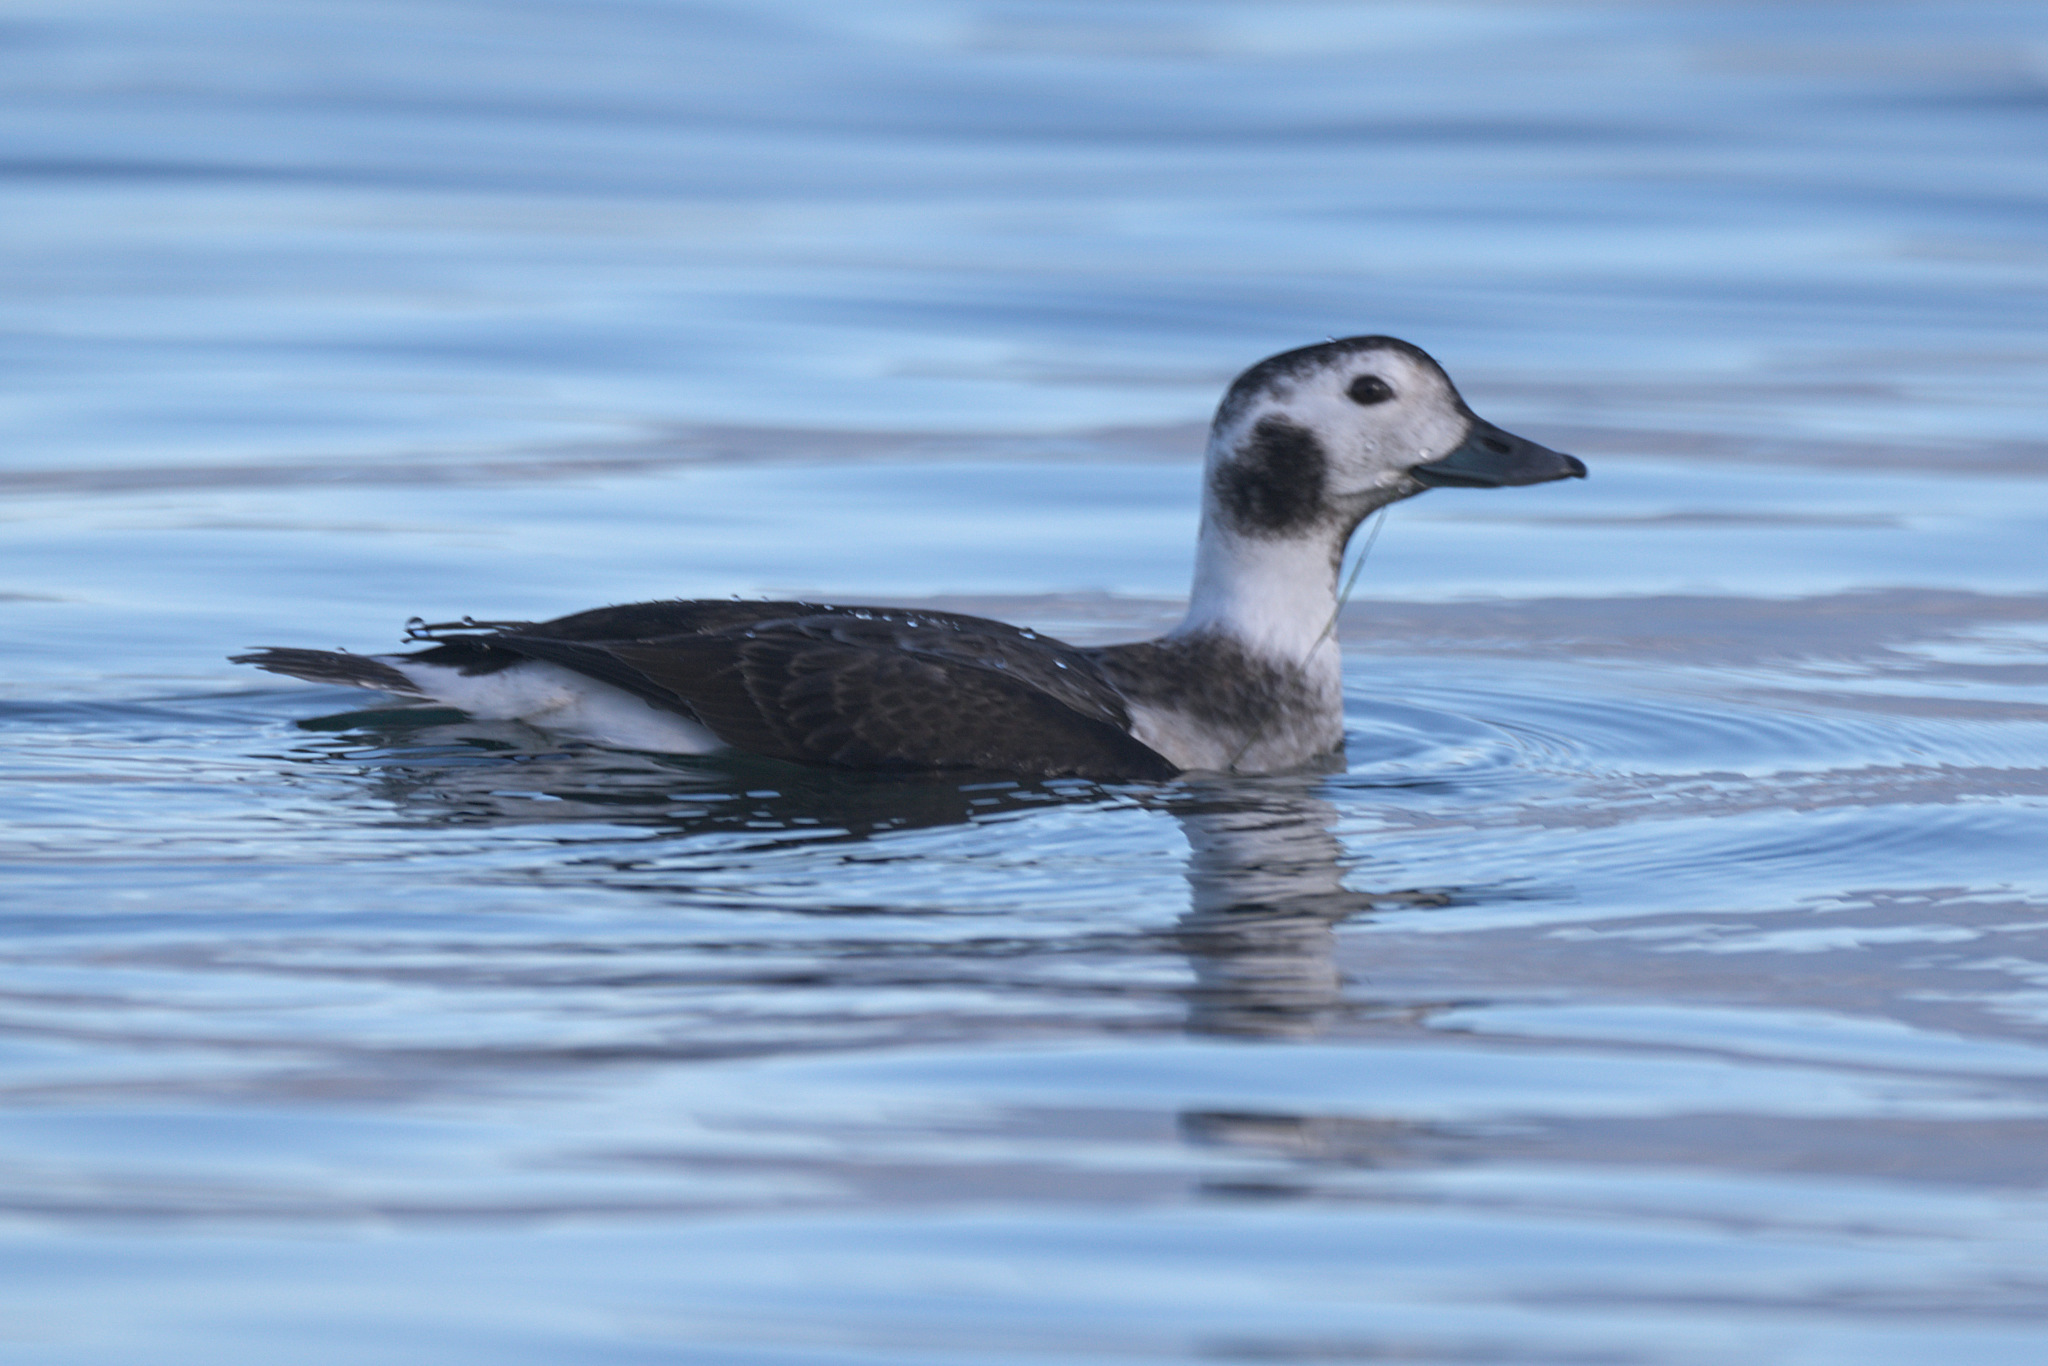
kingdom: Animalia
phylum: Chordata
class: Aves
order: Anseriformes
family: Anatidae
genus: Clangula
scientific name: Clangula hyemalis
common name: Long-tailed duck
